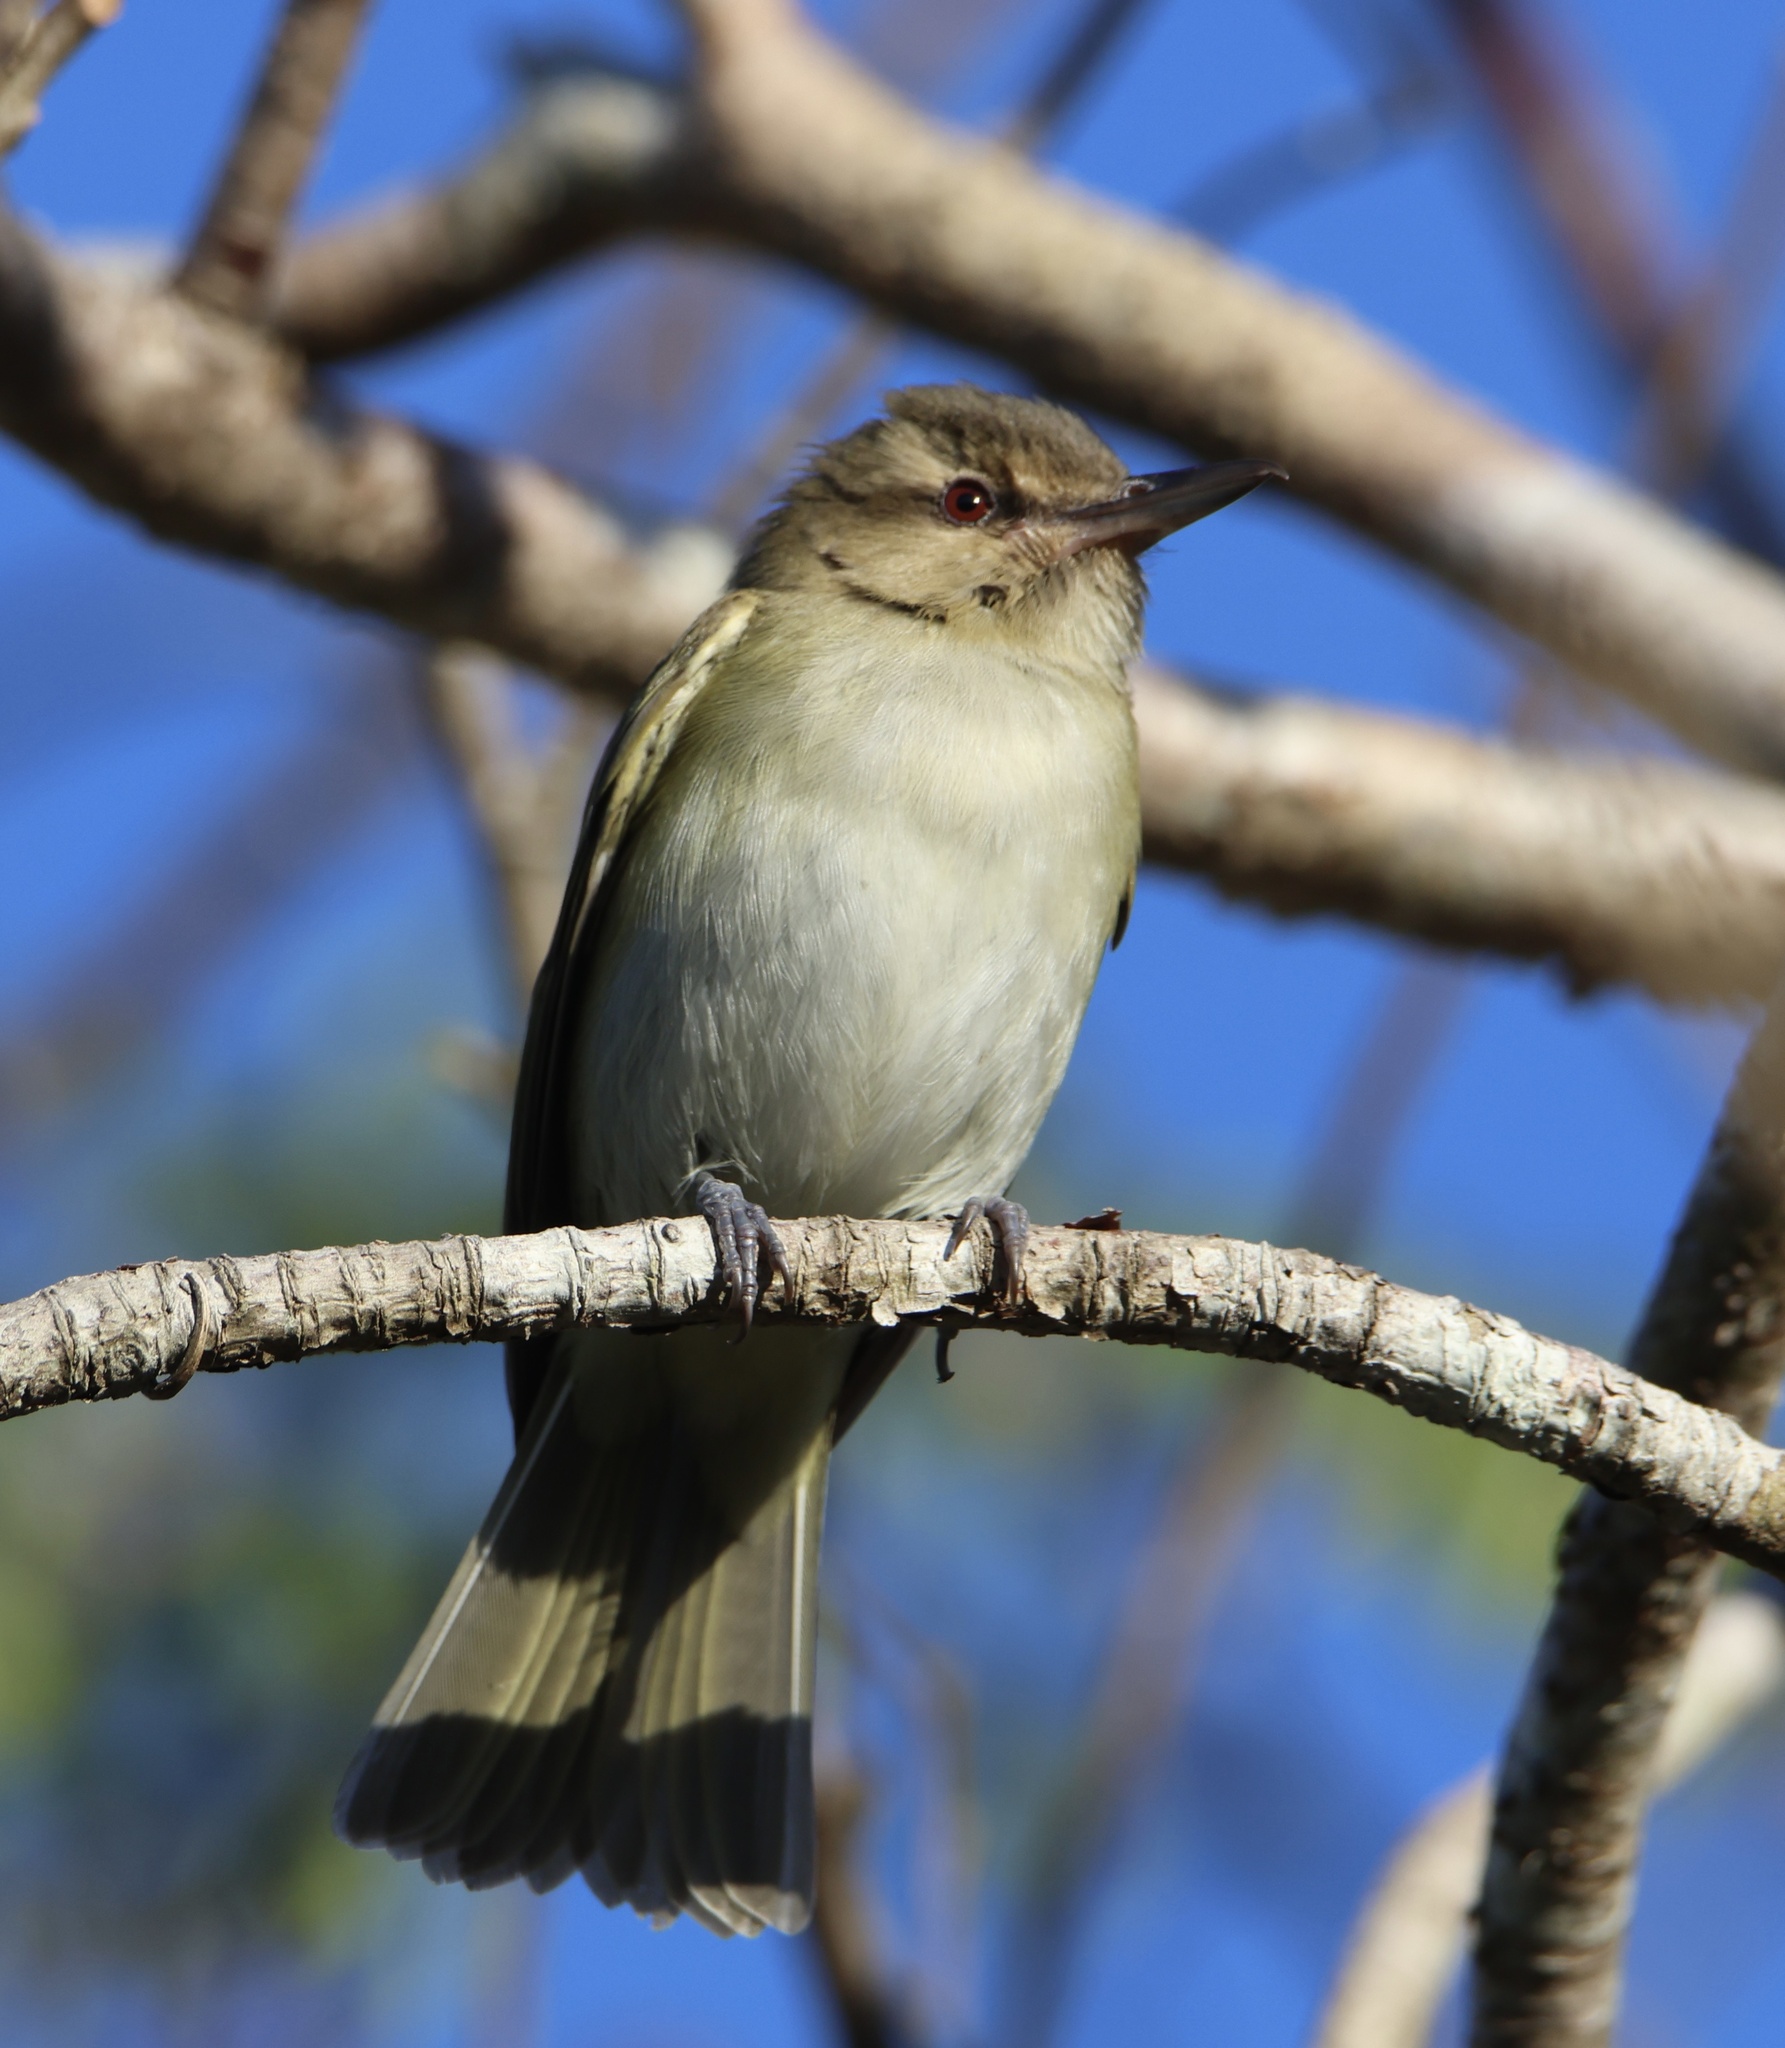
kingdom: Animalia
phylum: Chordata
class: Aves
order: Passeriformes
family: Vireonidae
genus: Vireo
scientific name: Vireo altiloquus
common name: Black-whiskered vireo
